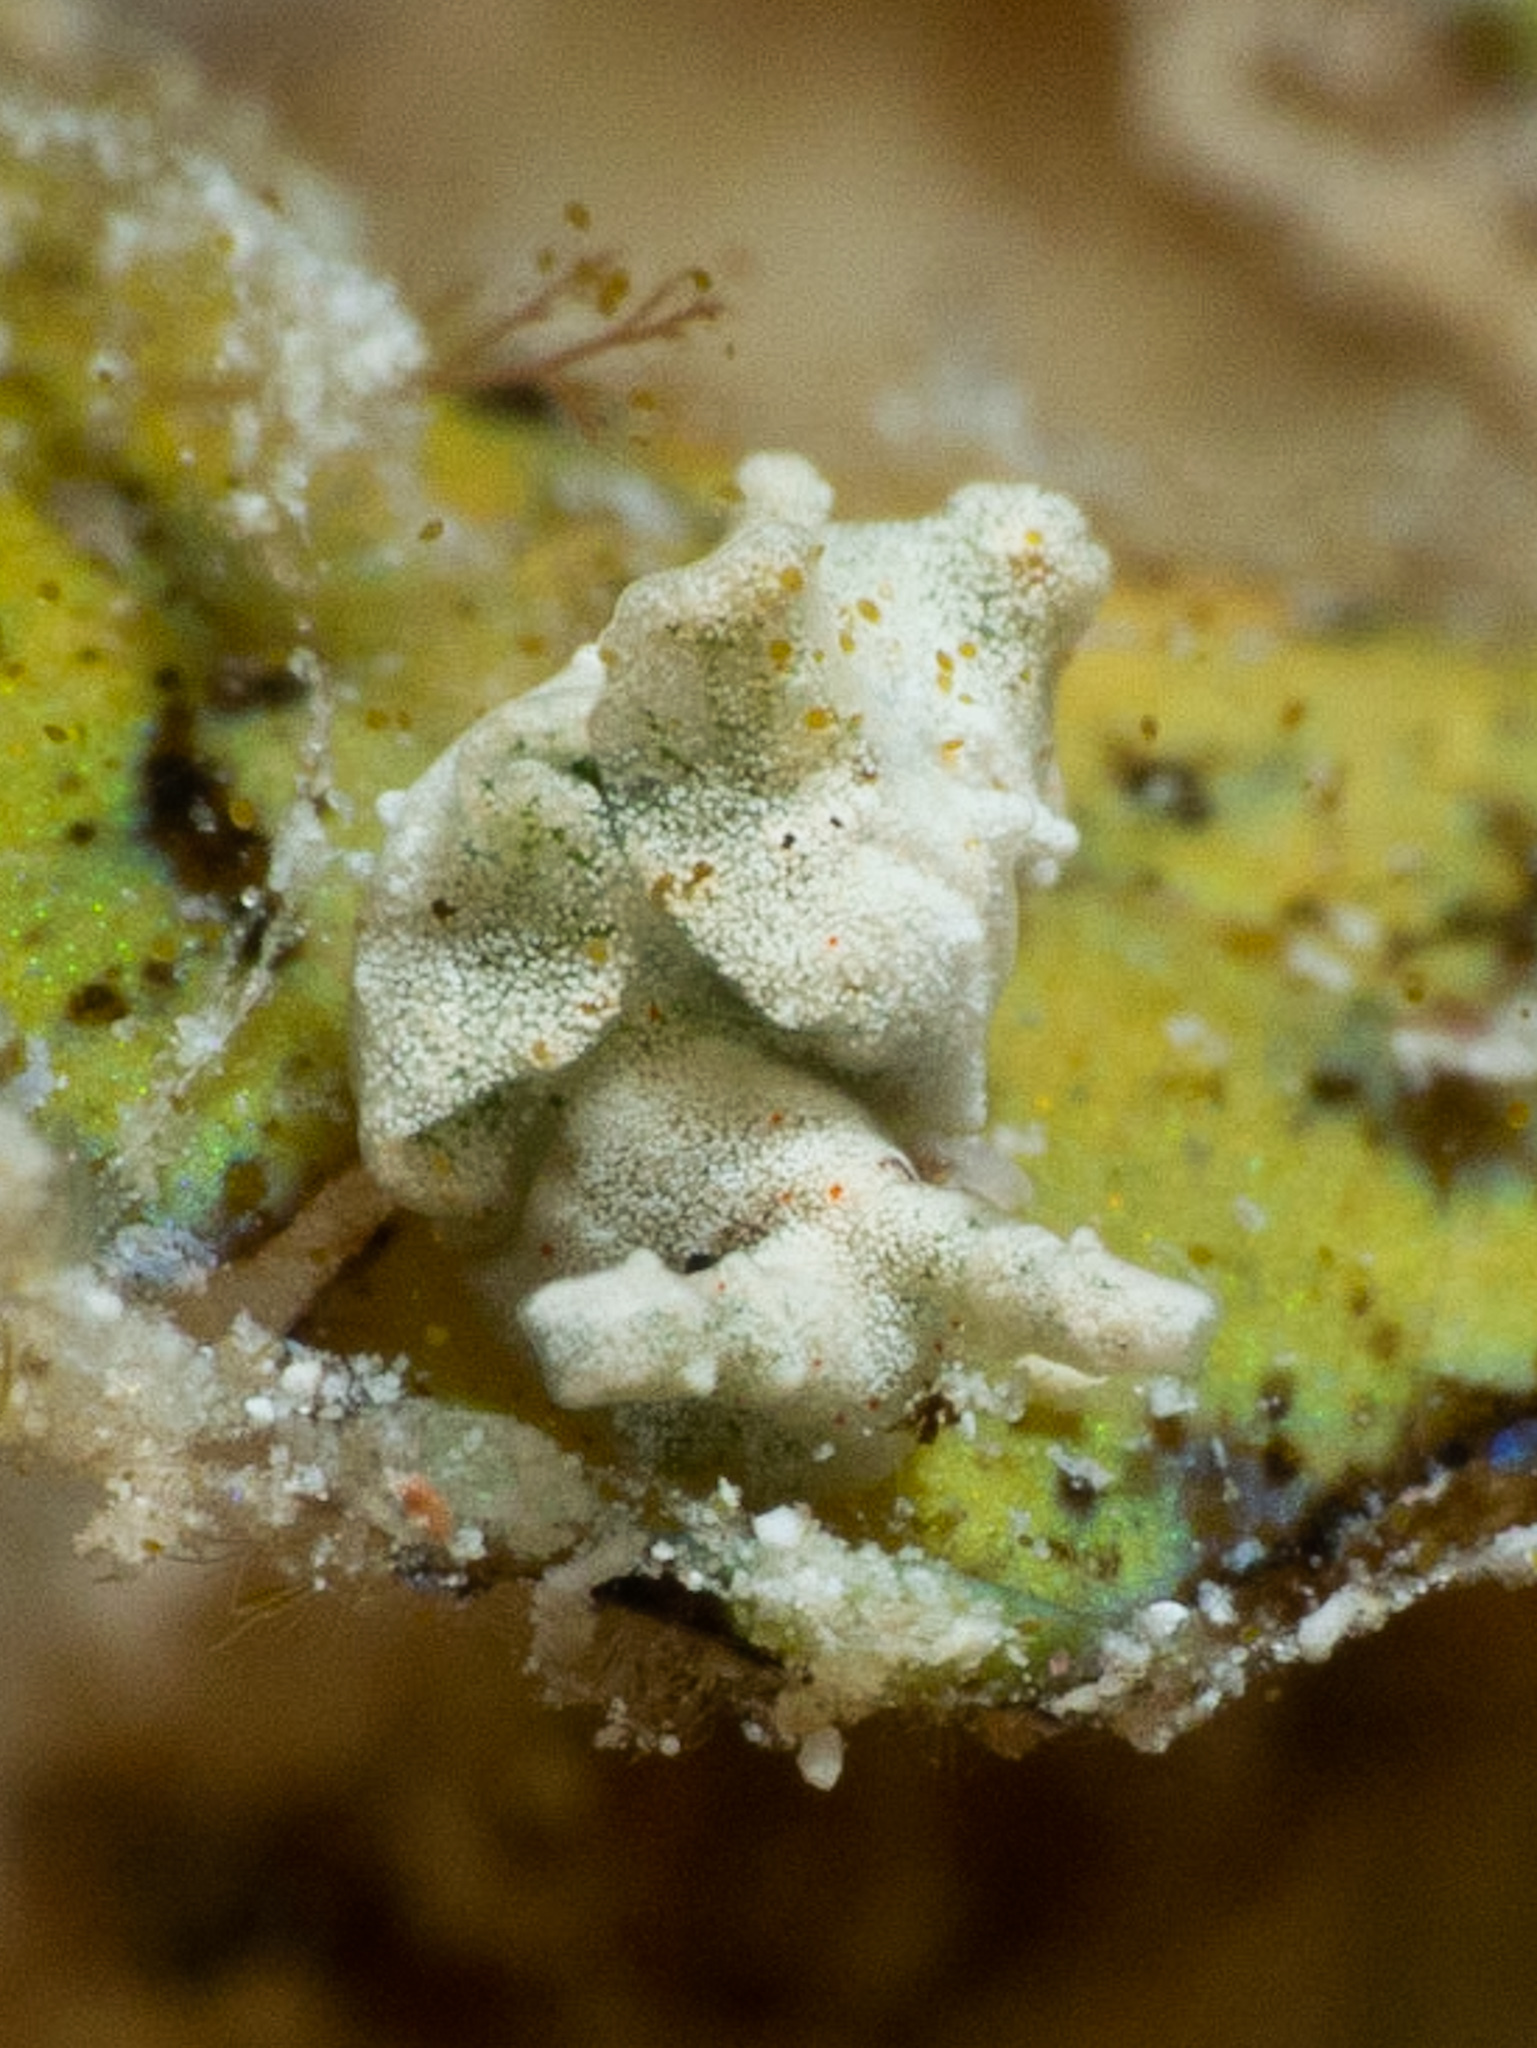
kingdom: Animalia
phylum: Mollusca
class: Gastropoda
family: Plakobranchidae
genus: Elysia
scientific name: Elysia cornigera
